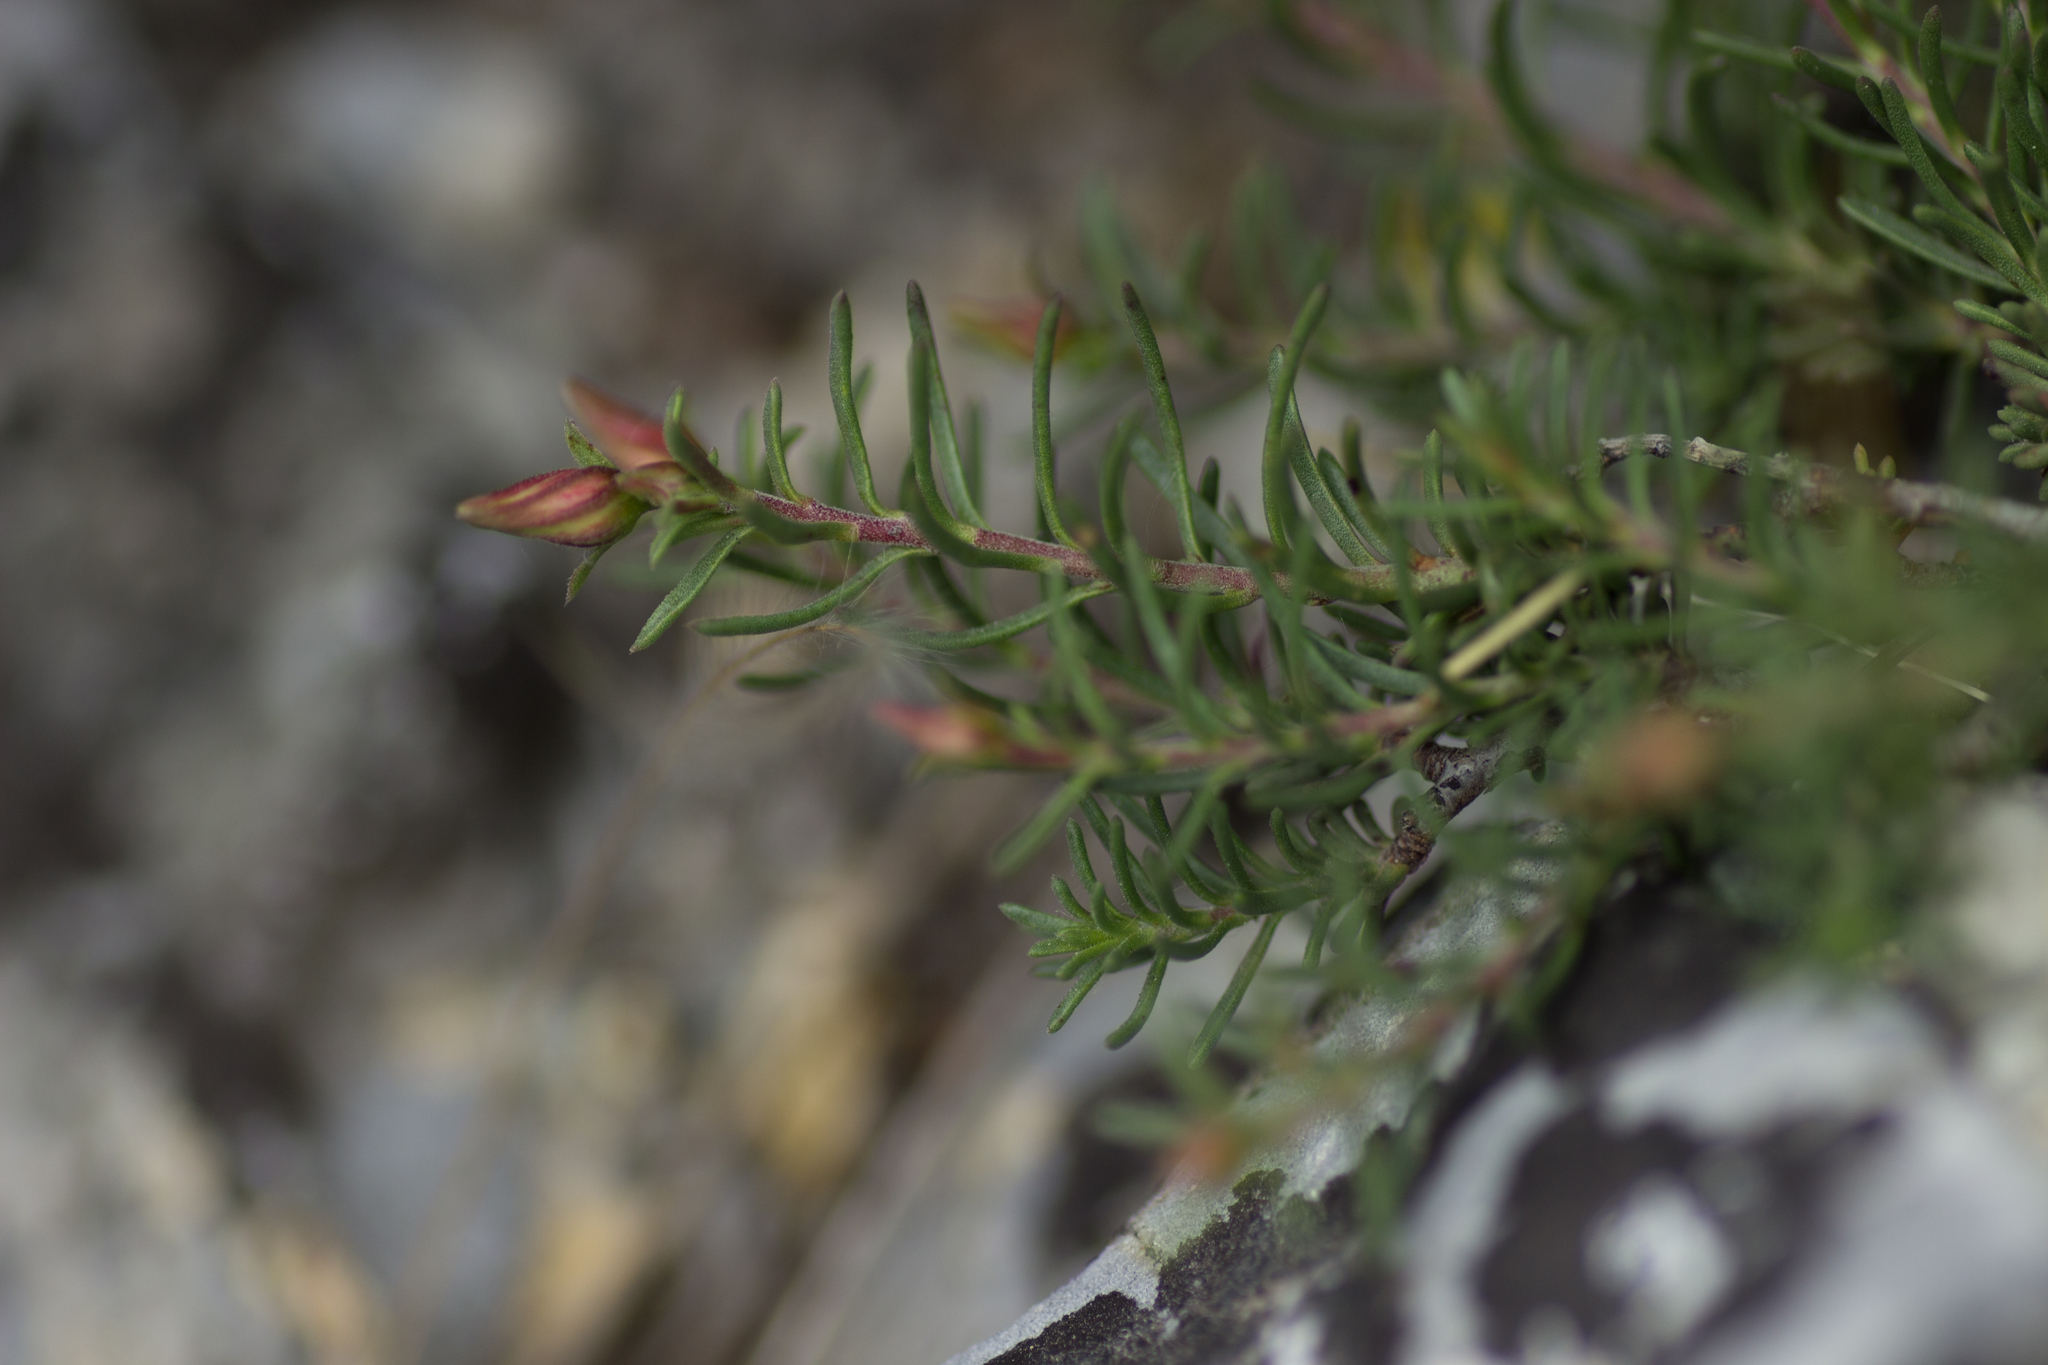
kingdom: Plantae
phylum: Tracheophyta
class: Magnoliopsida
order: Malvales
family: Cistaceae
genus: Fumana
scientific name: Fumana procumbens
